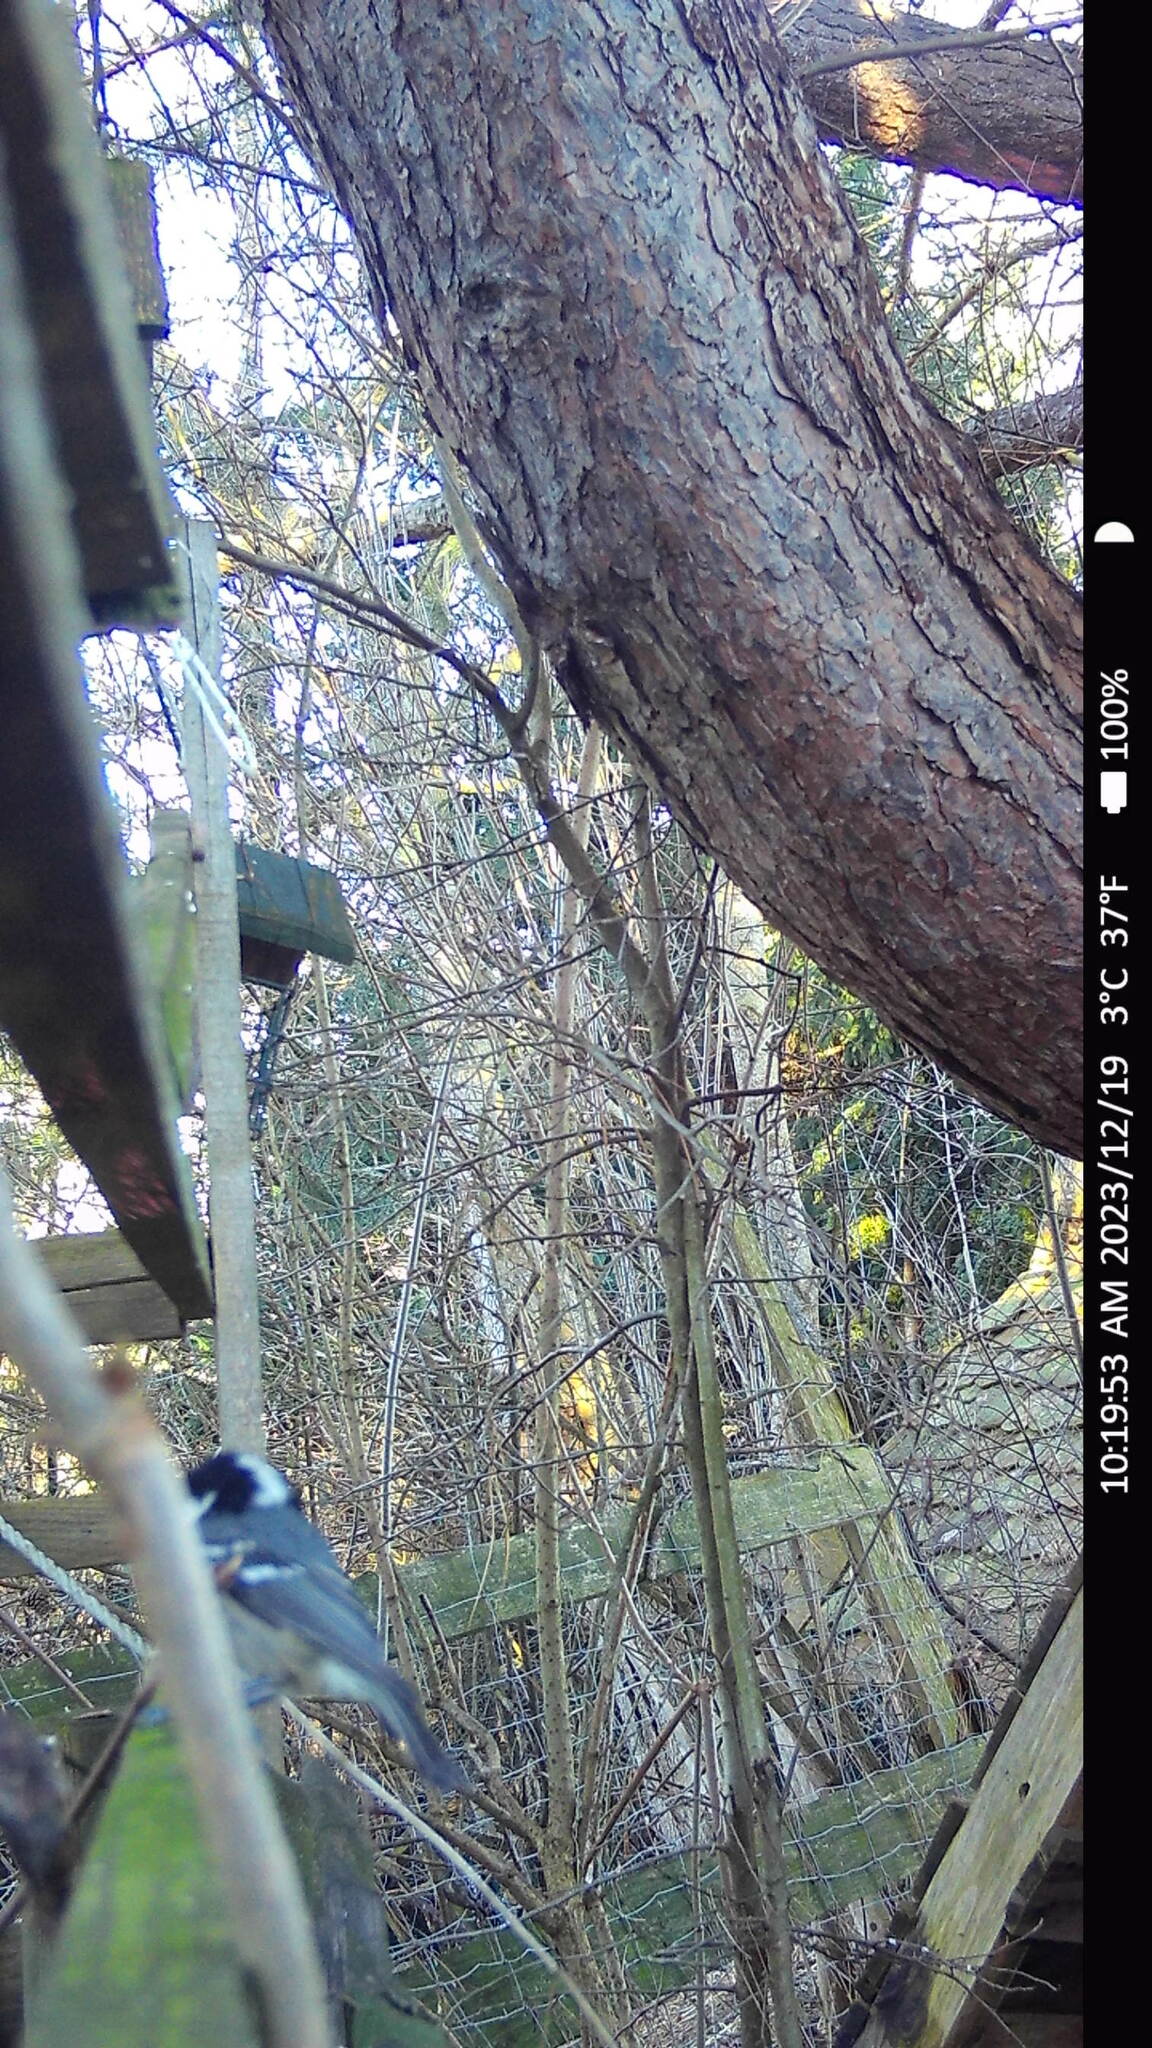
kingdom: Animalia
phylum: Chordata
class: Aves
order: Passeriformes
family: Paridae
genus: Periparus
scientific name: Periparus ater
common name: Coal tit
